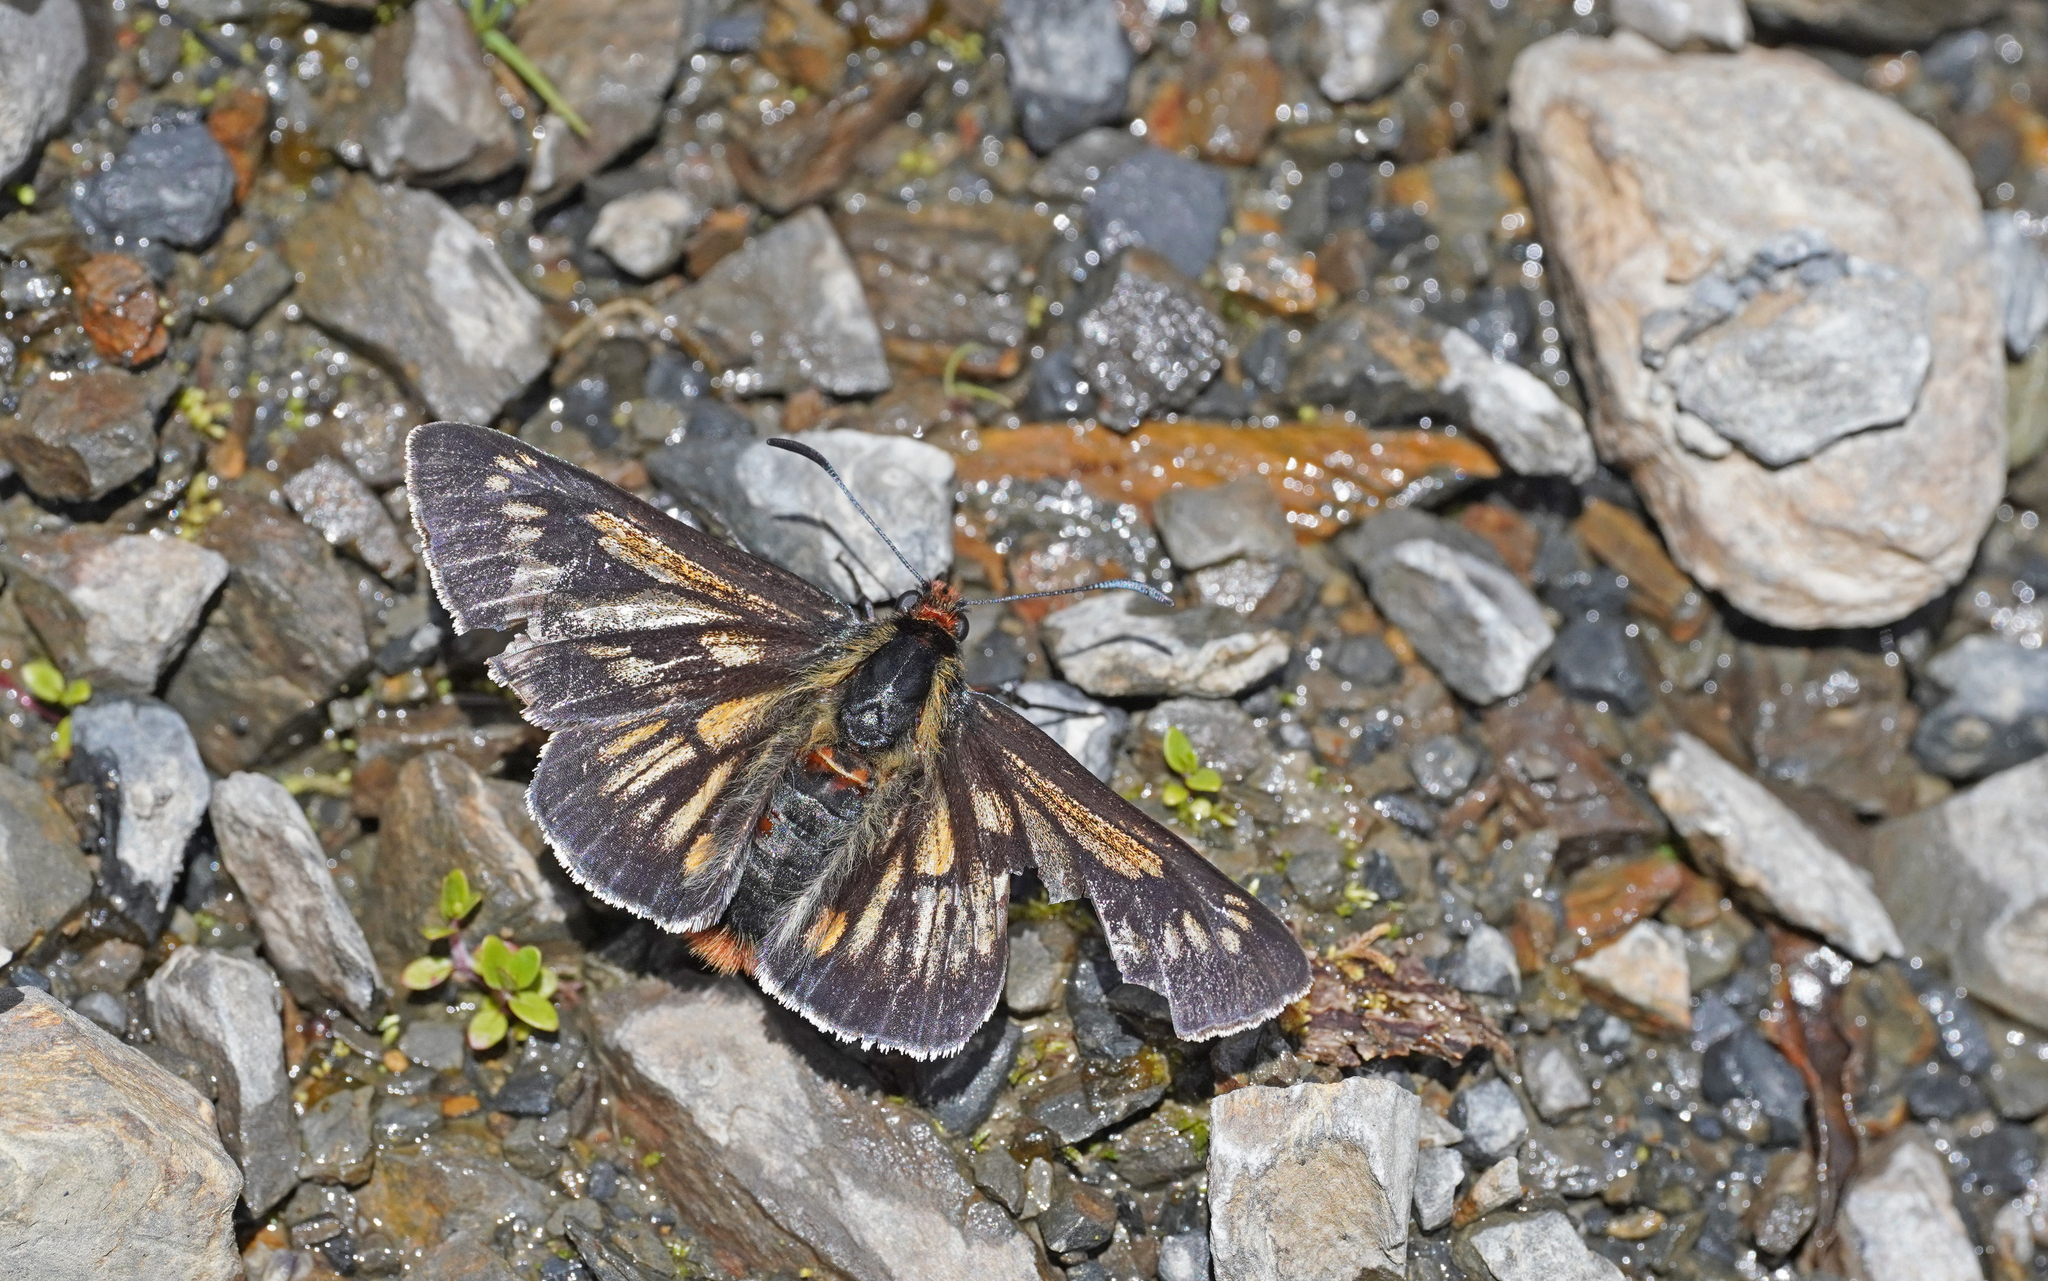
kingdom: Animalia
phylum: Arthropoda
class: Insecta
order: Lepidoptera
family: Hesperiidae
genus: Metardaris
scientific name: Metardaris cosinga
